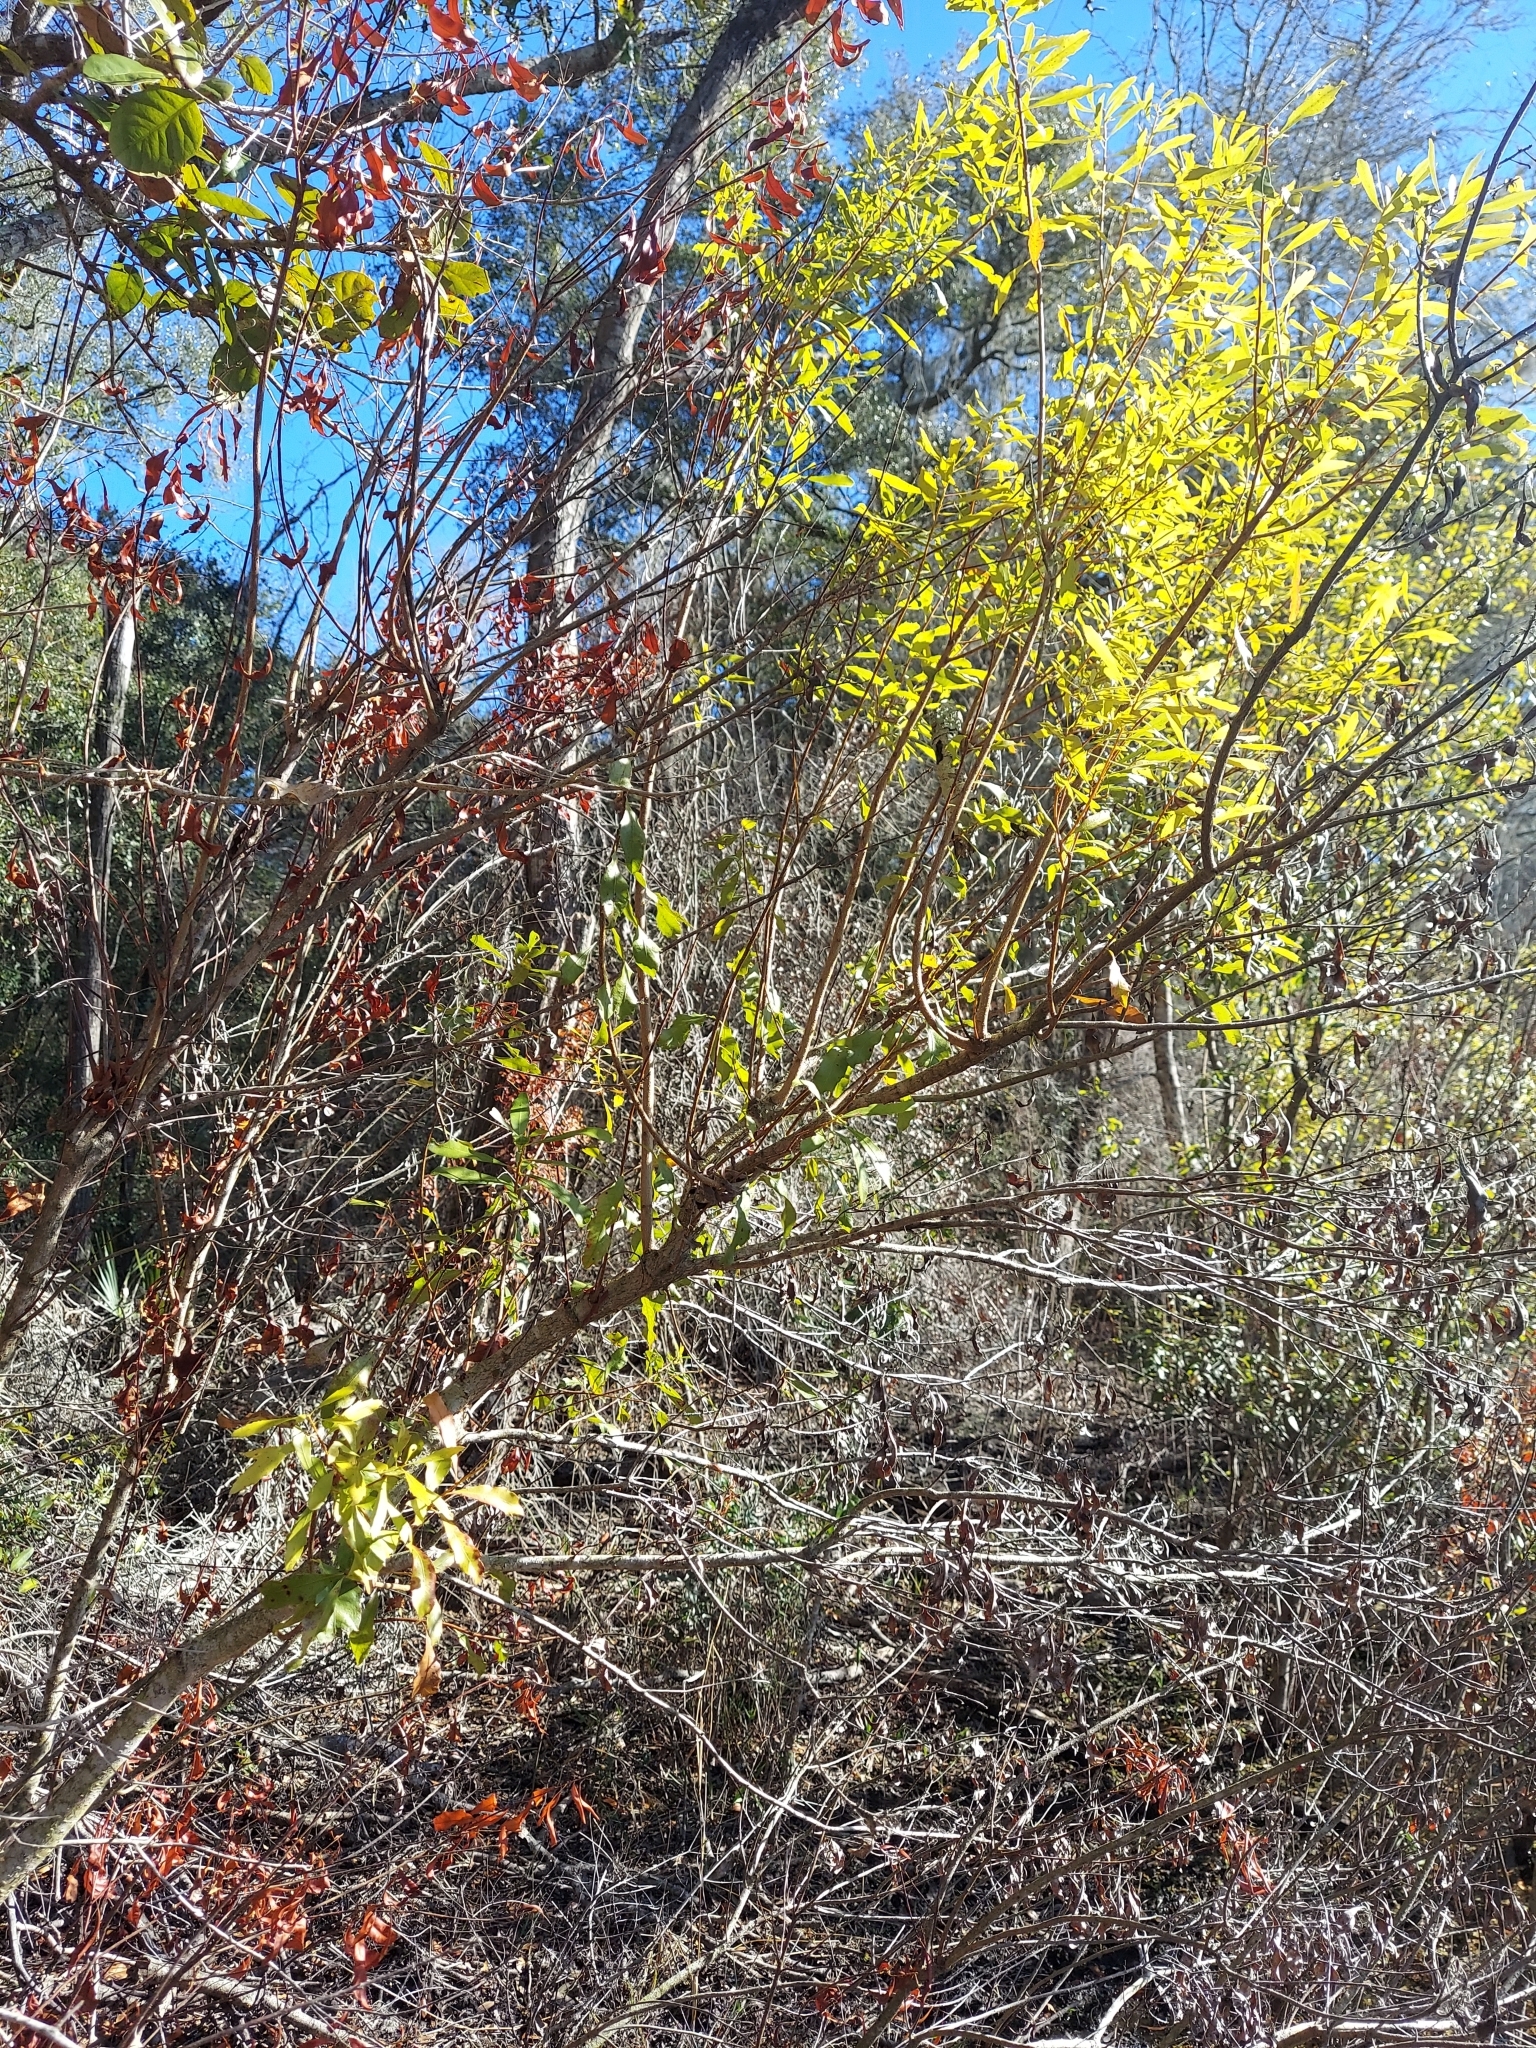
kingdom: Plantae
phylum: Tracheophyta
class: Magnoliopsida
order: Fagales
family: Myricaceae
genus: Morella
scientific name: Morella cerifera
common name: Wax myrtle
